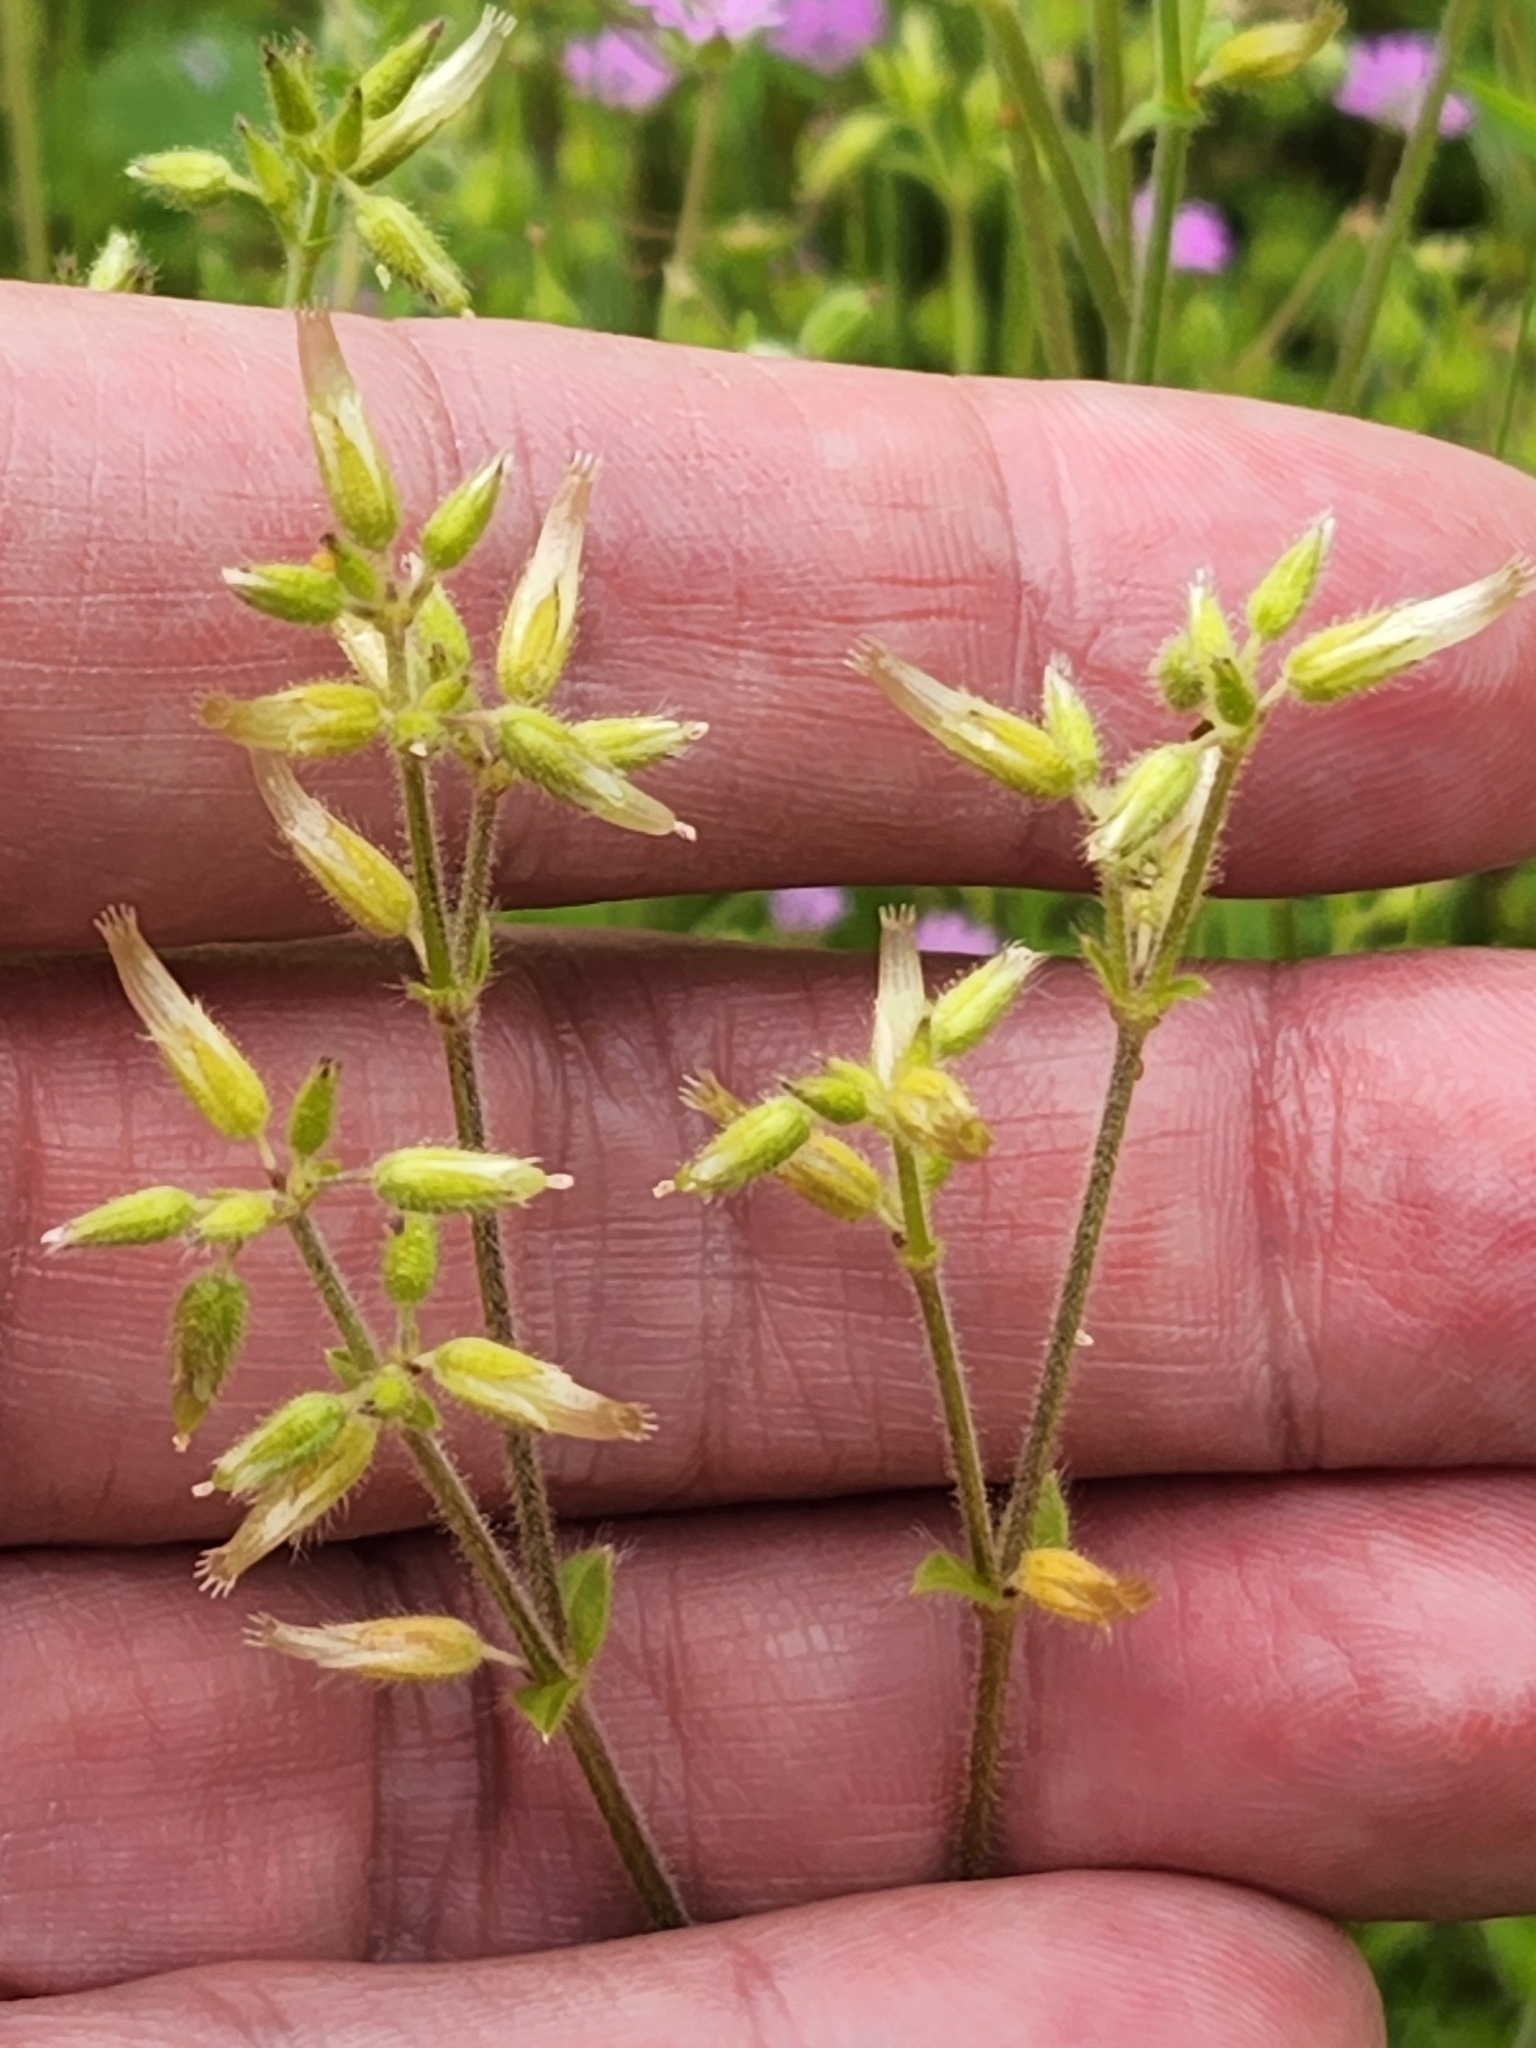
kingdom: Plantae
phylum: Tracheophyta
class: Magnoliopsida
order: Caryophyllales
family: Caryophyllaceae
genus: Cerastium
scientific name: Cerastium glomeratum
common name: Sticky chickweed
